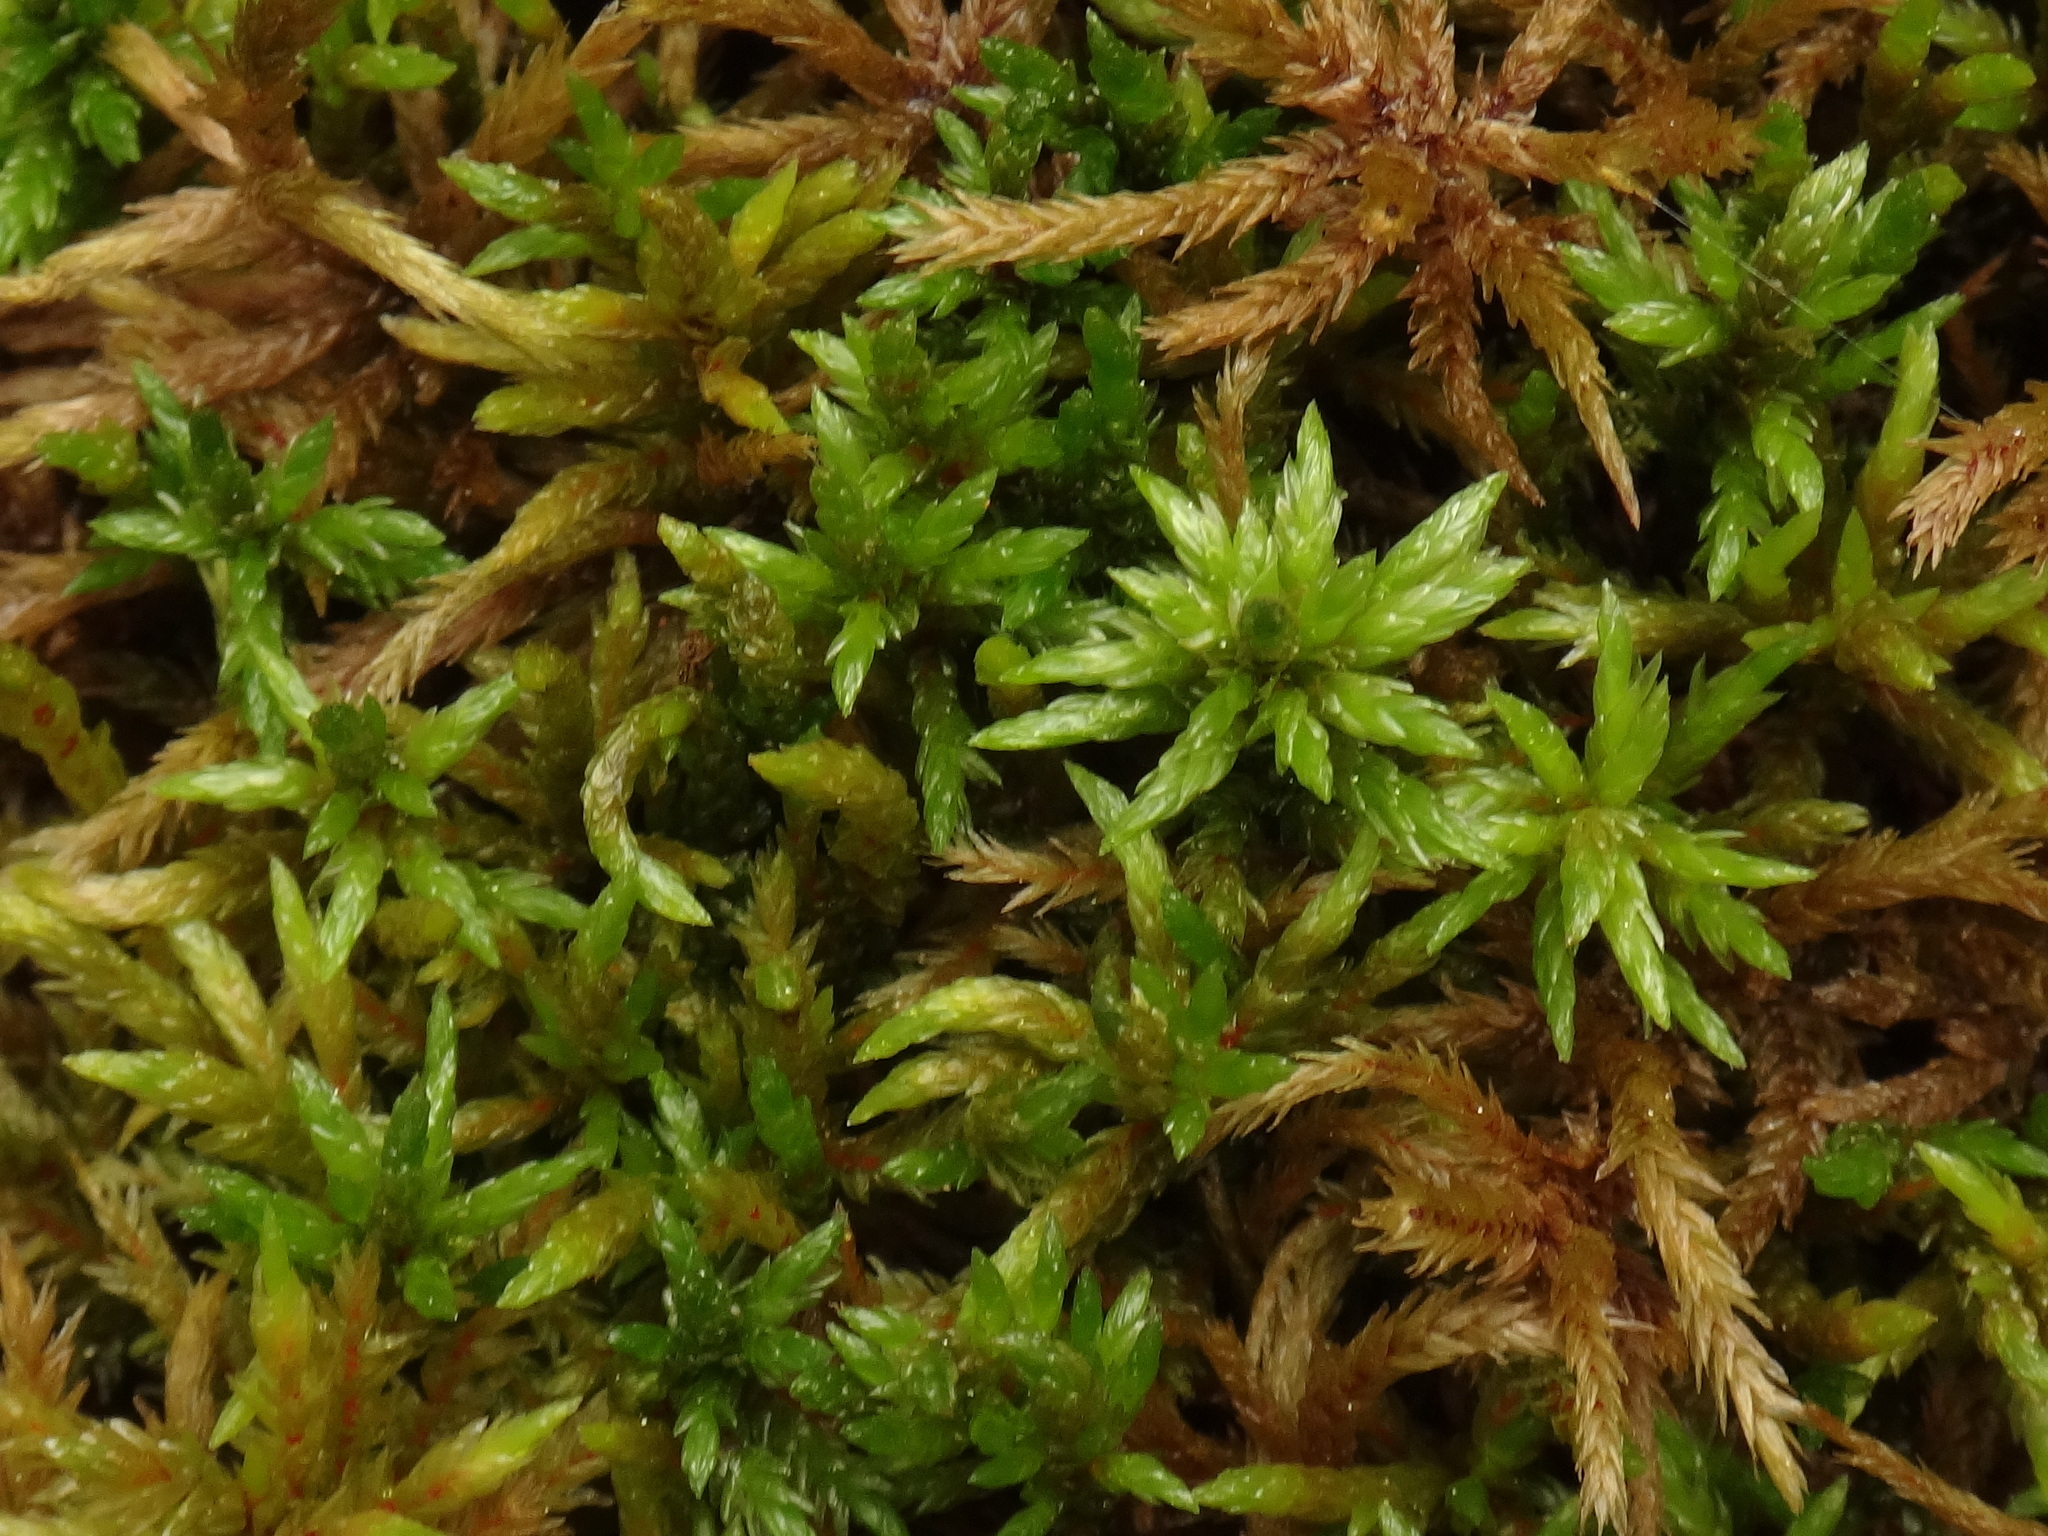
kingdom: Plantae
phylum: Bryophyta
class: Bryopsida
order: Hypnales
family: Climaciaceae
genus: Climacium
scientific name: Climacium dendroides
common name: Northern tree moss
